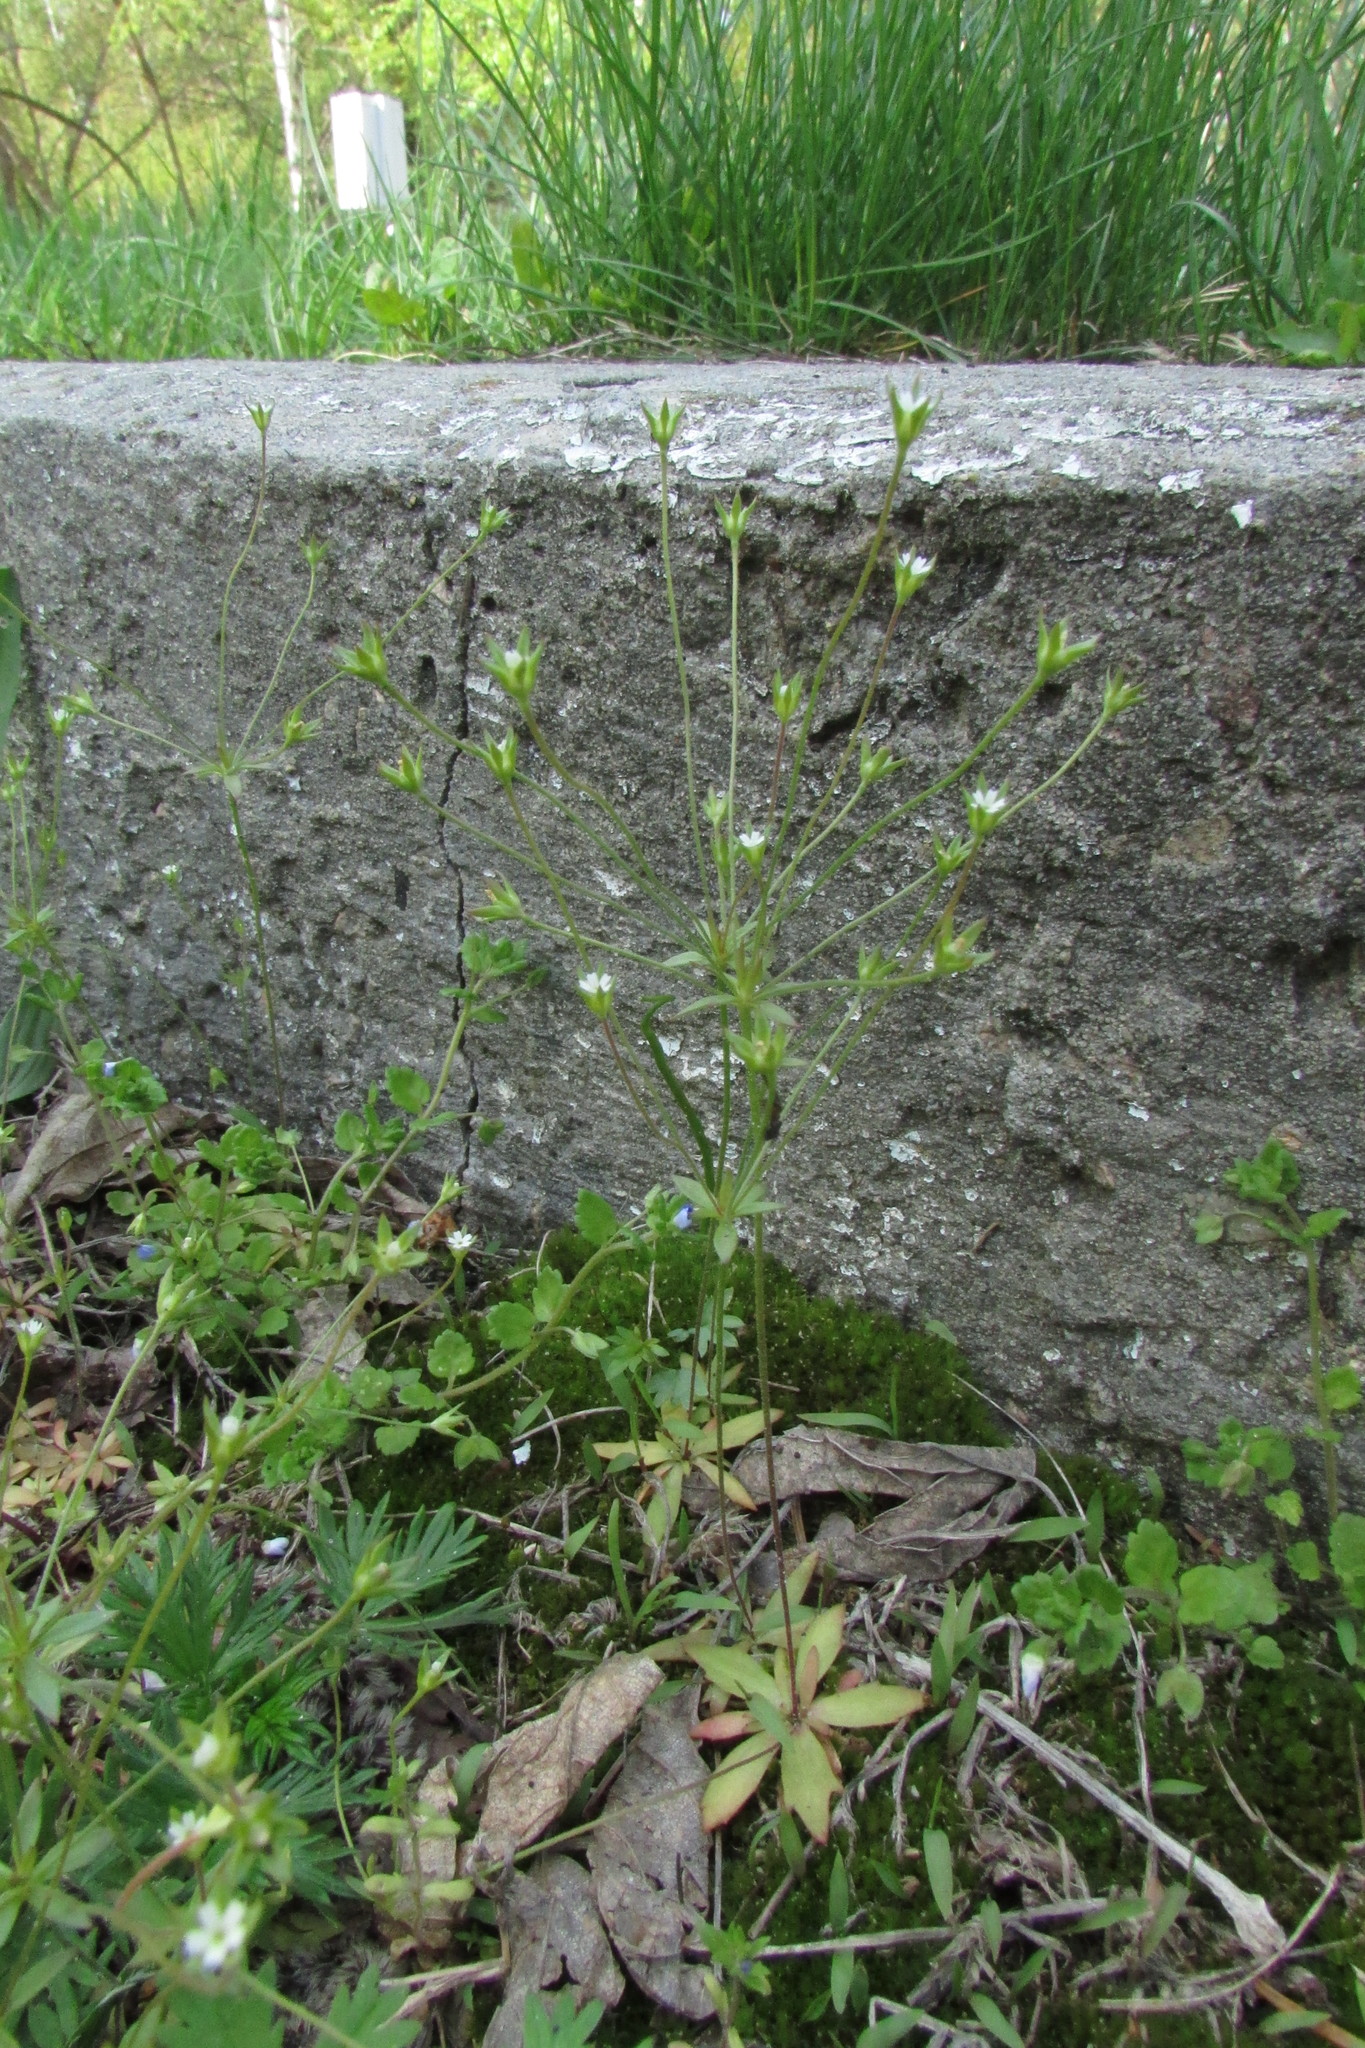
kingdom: Plantae
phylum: Tracheophyta
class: Magnoliopsida
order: Ericales
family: Primulaceae
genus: Androsace
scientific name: Androsace elongata
